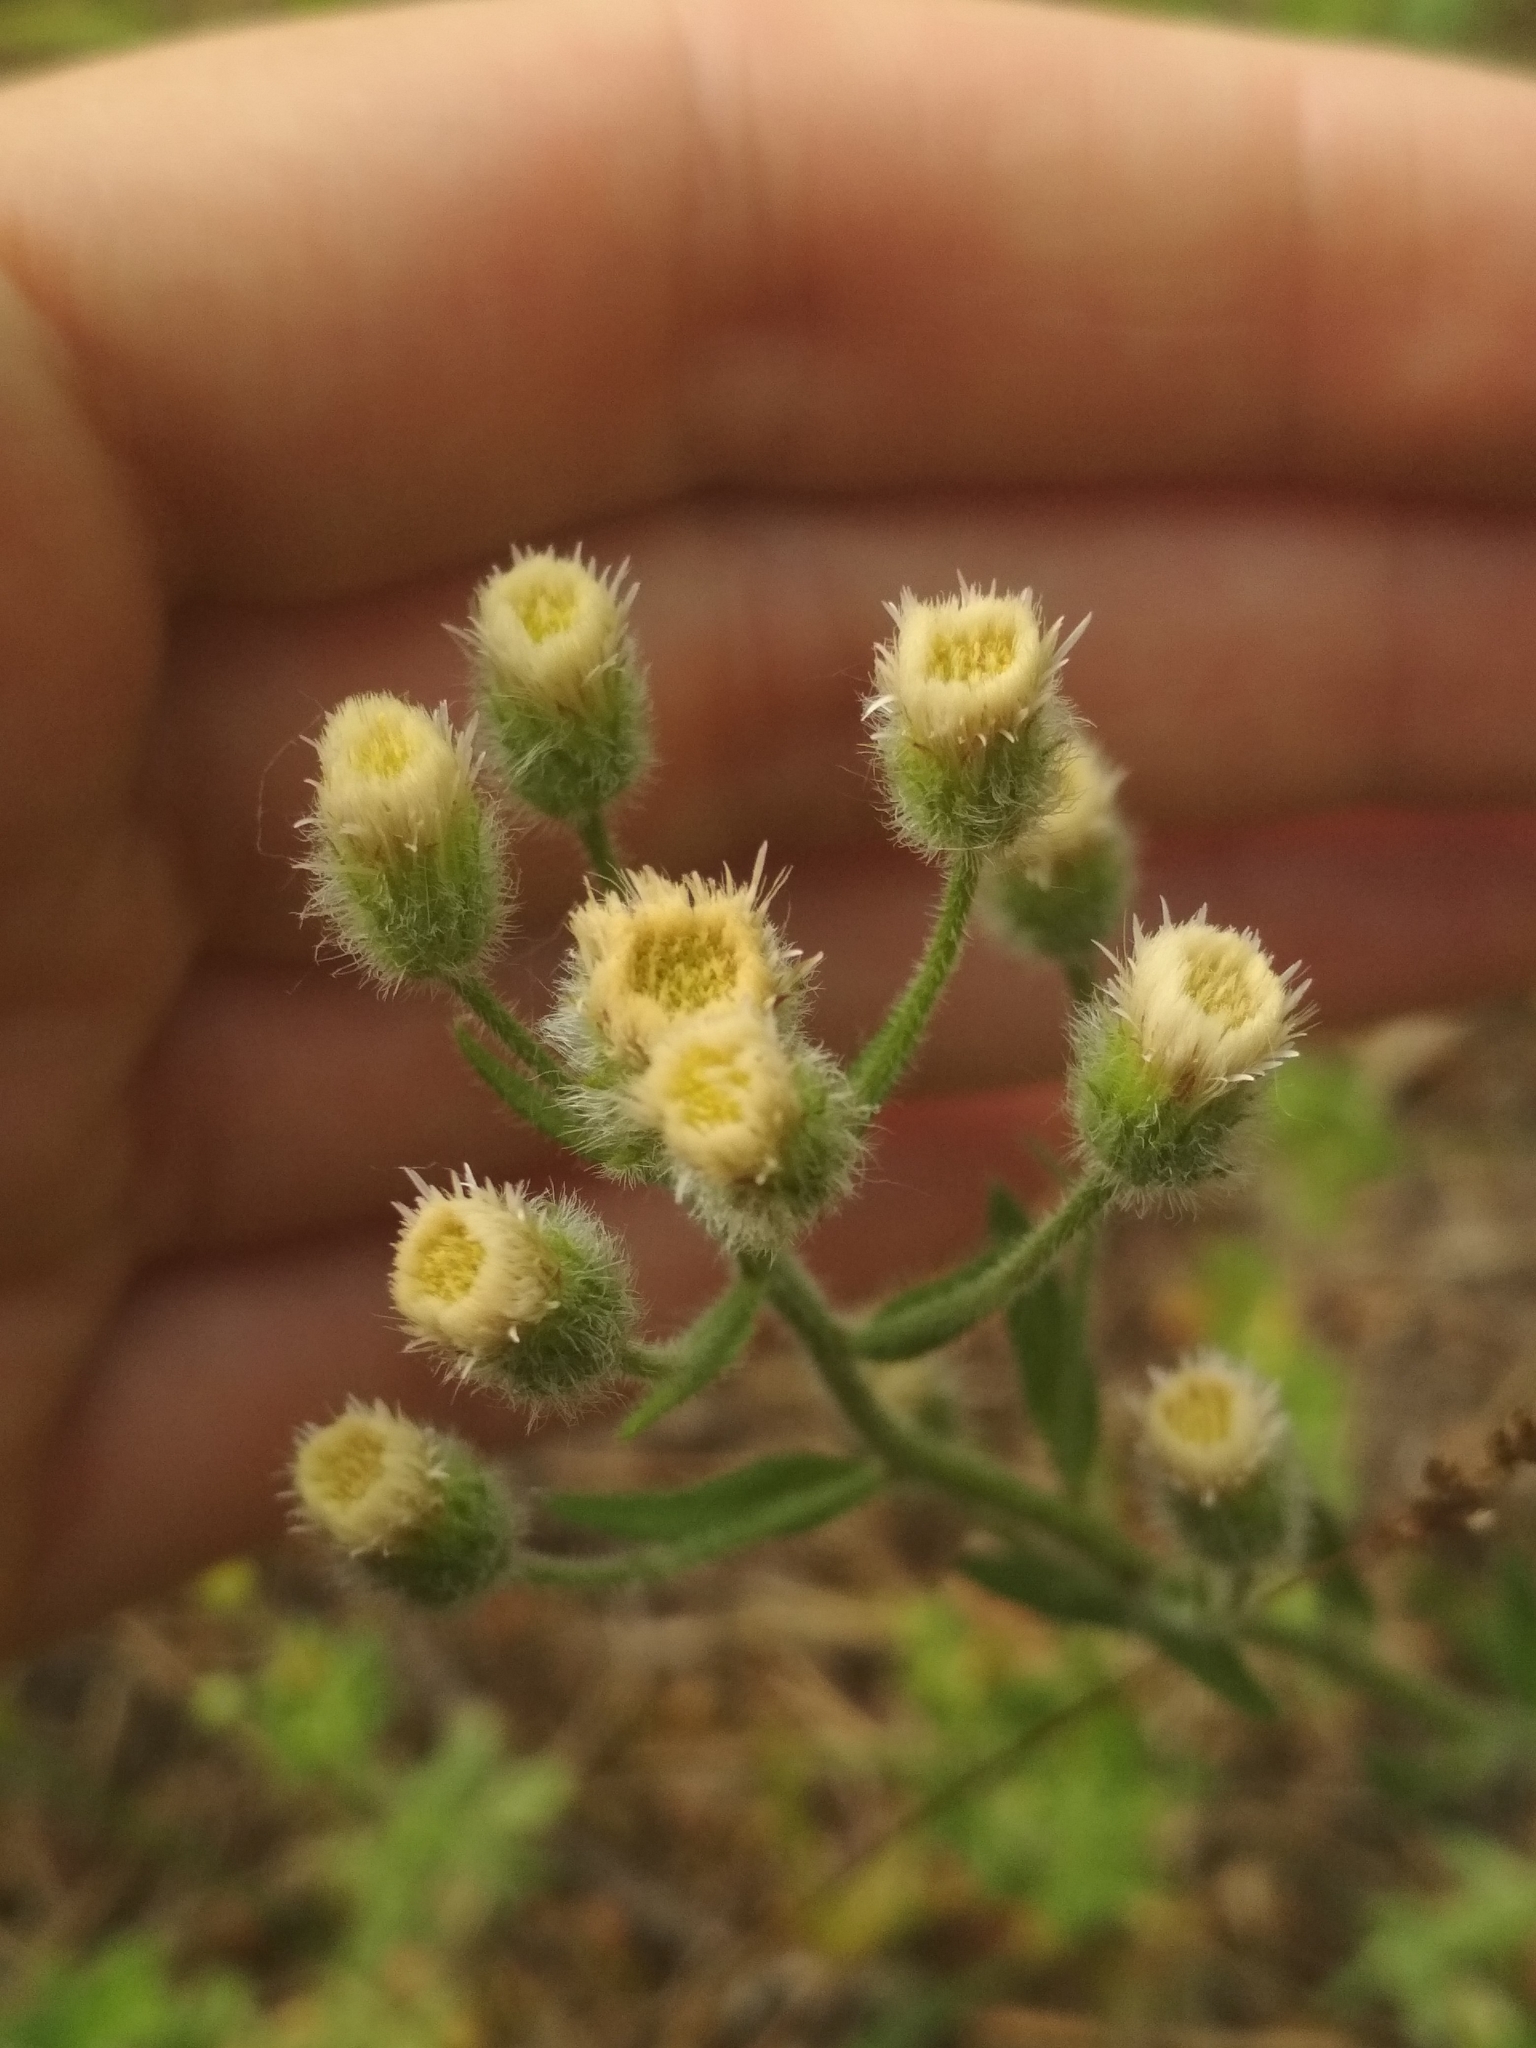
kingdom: Plantae
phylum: Tracheophyta
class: Magnoliopsida
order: Asterales
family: Asteraceae
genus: Erigeron
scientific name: Erigeron acris
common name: Blue fleabane
